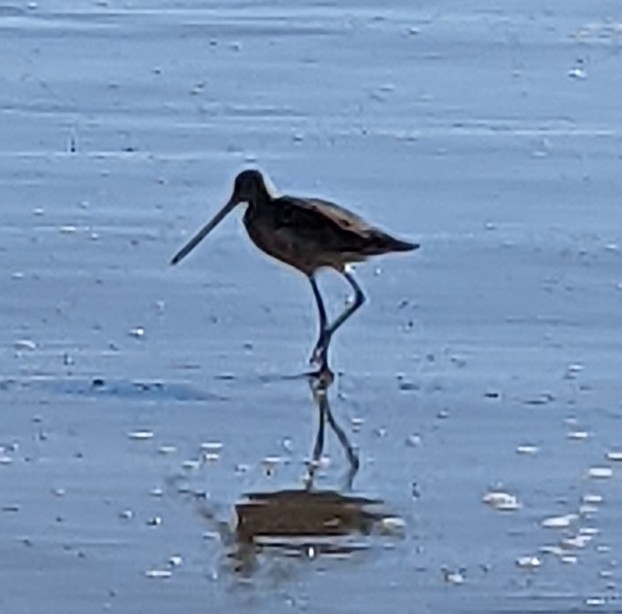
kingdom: Animalia
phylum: Chordata
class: Aves
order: Charadriiformes
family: Scolopacidae
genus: Limosa
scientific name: Limosa fedoa
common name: Marbled godwit
